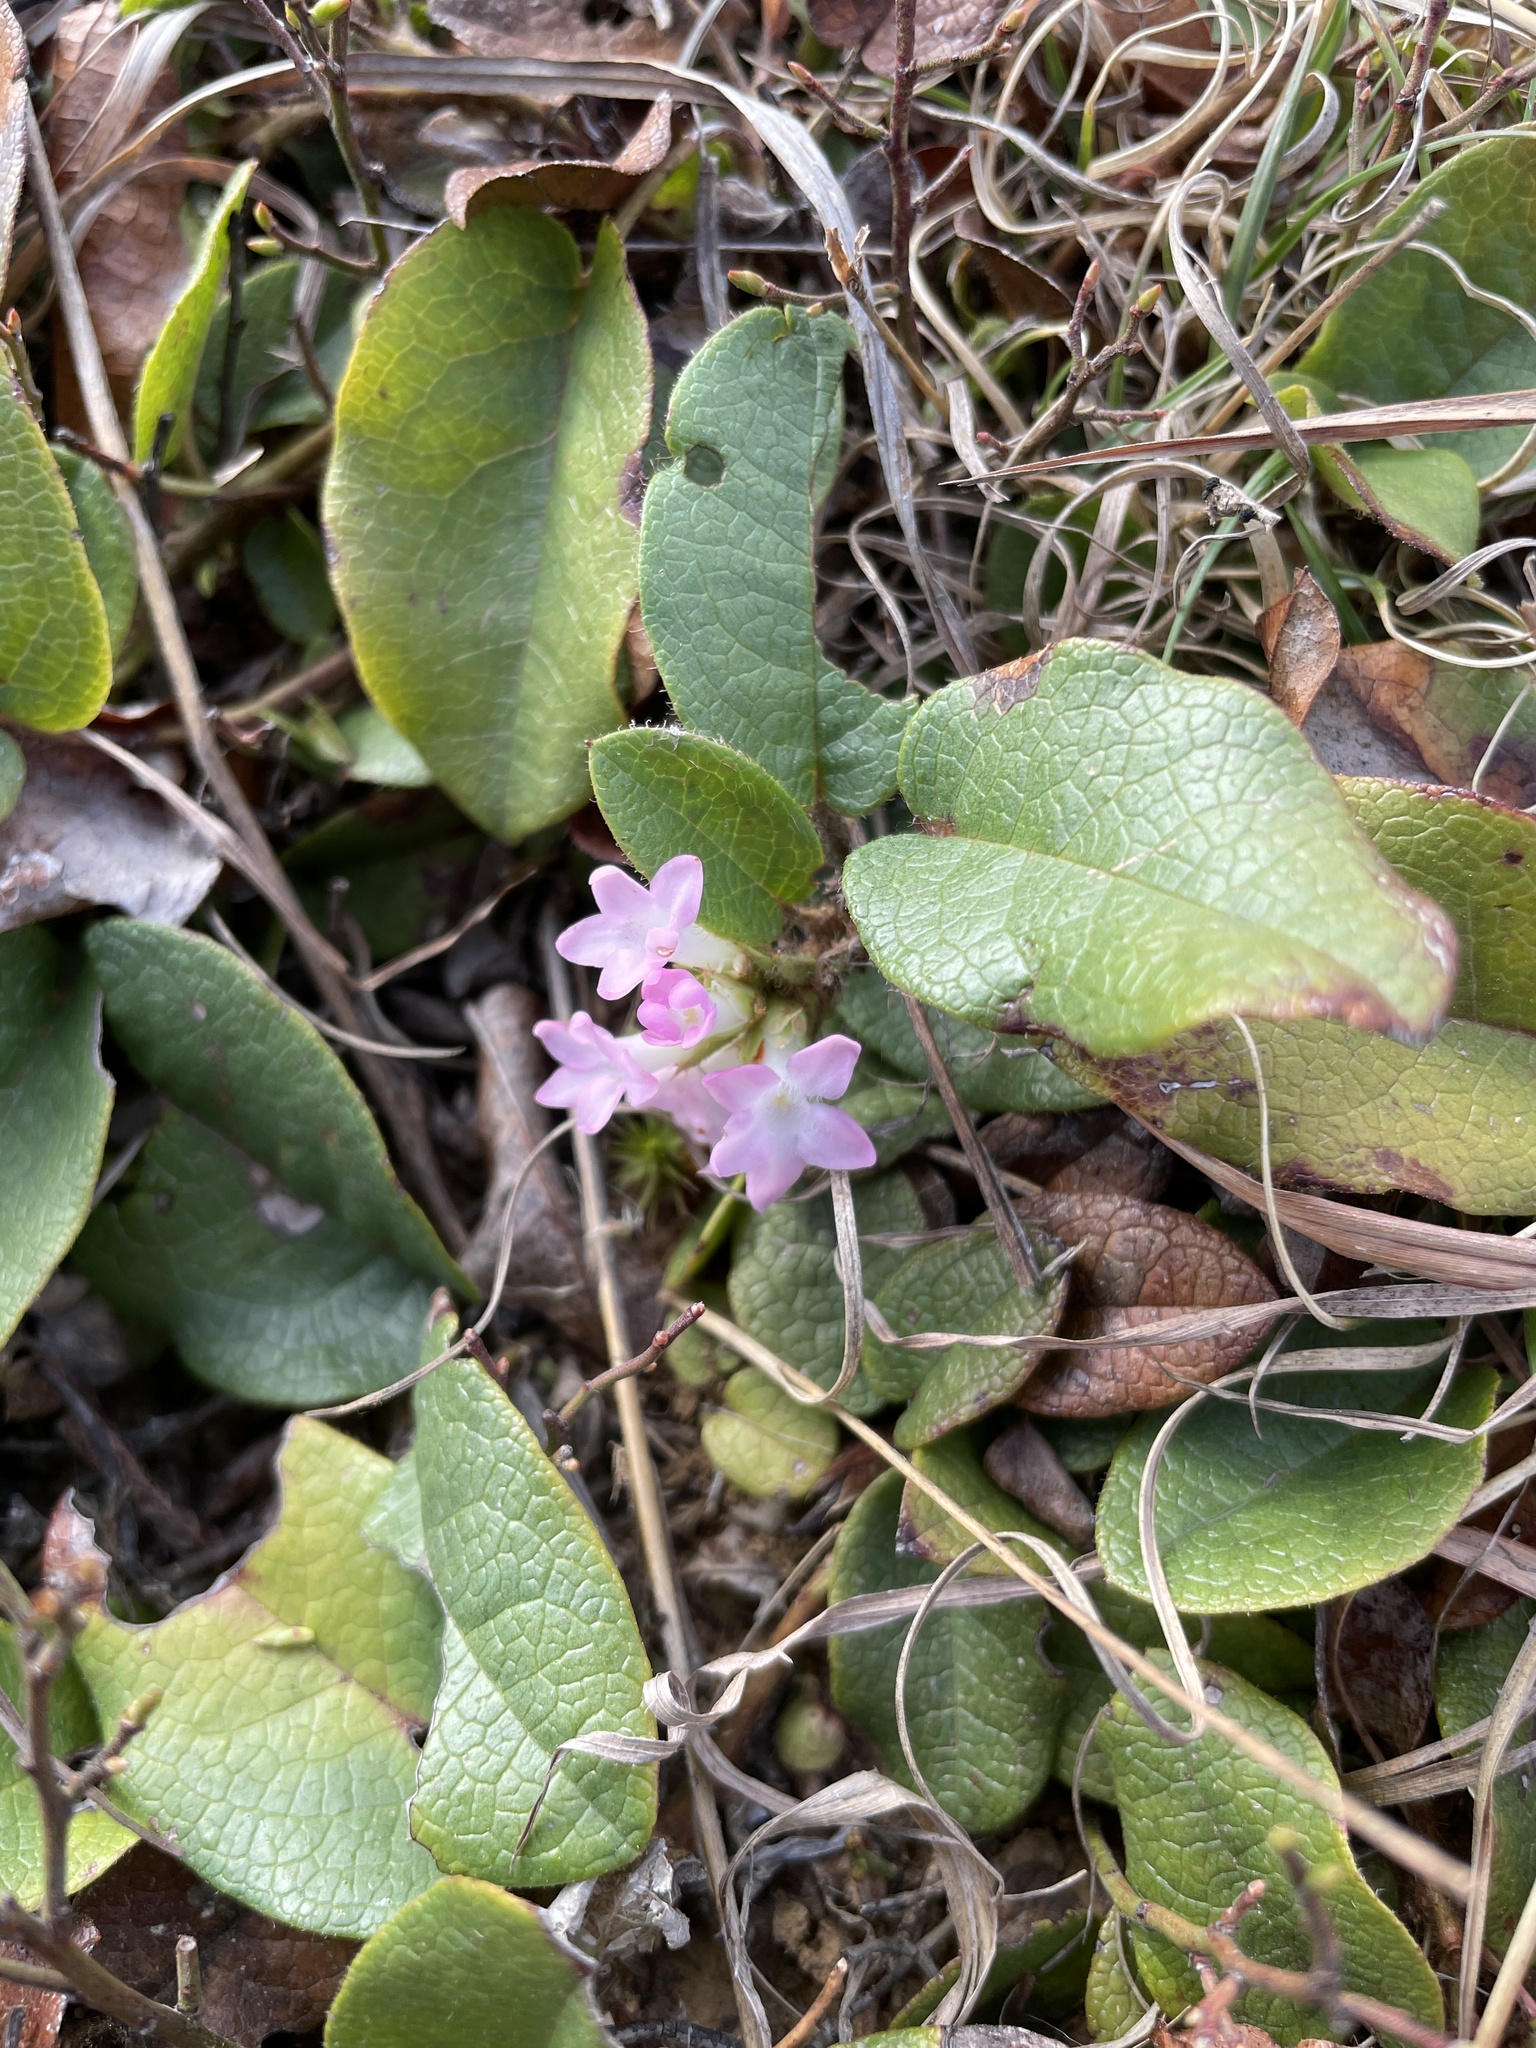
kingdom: Plantae
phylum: Tracheophyta
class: Magnoliopsida
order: Ericales
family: Ericaceae
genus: Epigaea
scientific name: Epigaea repens
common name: Gravelroot
